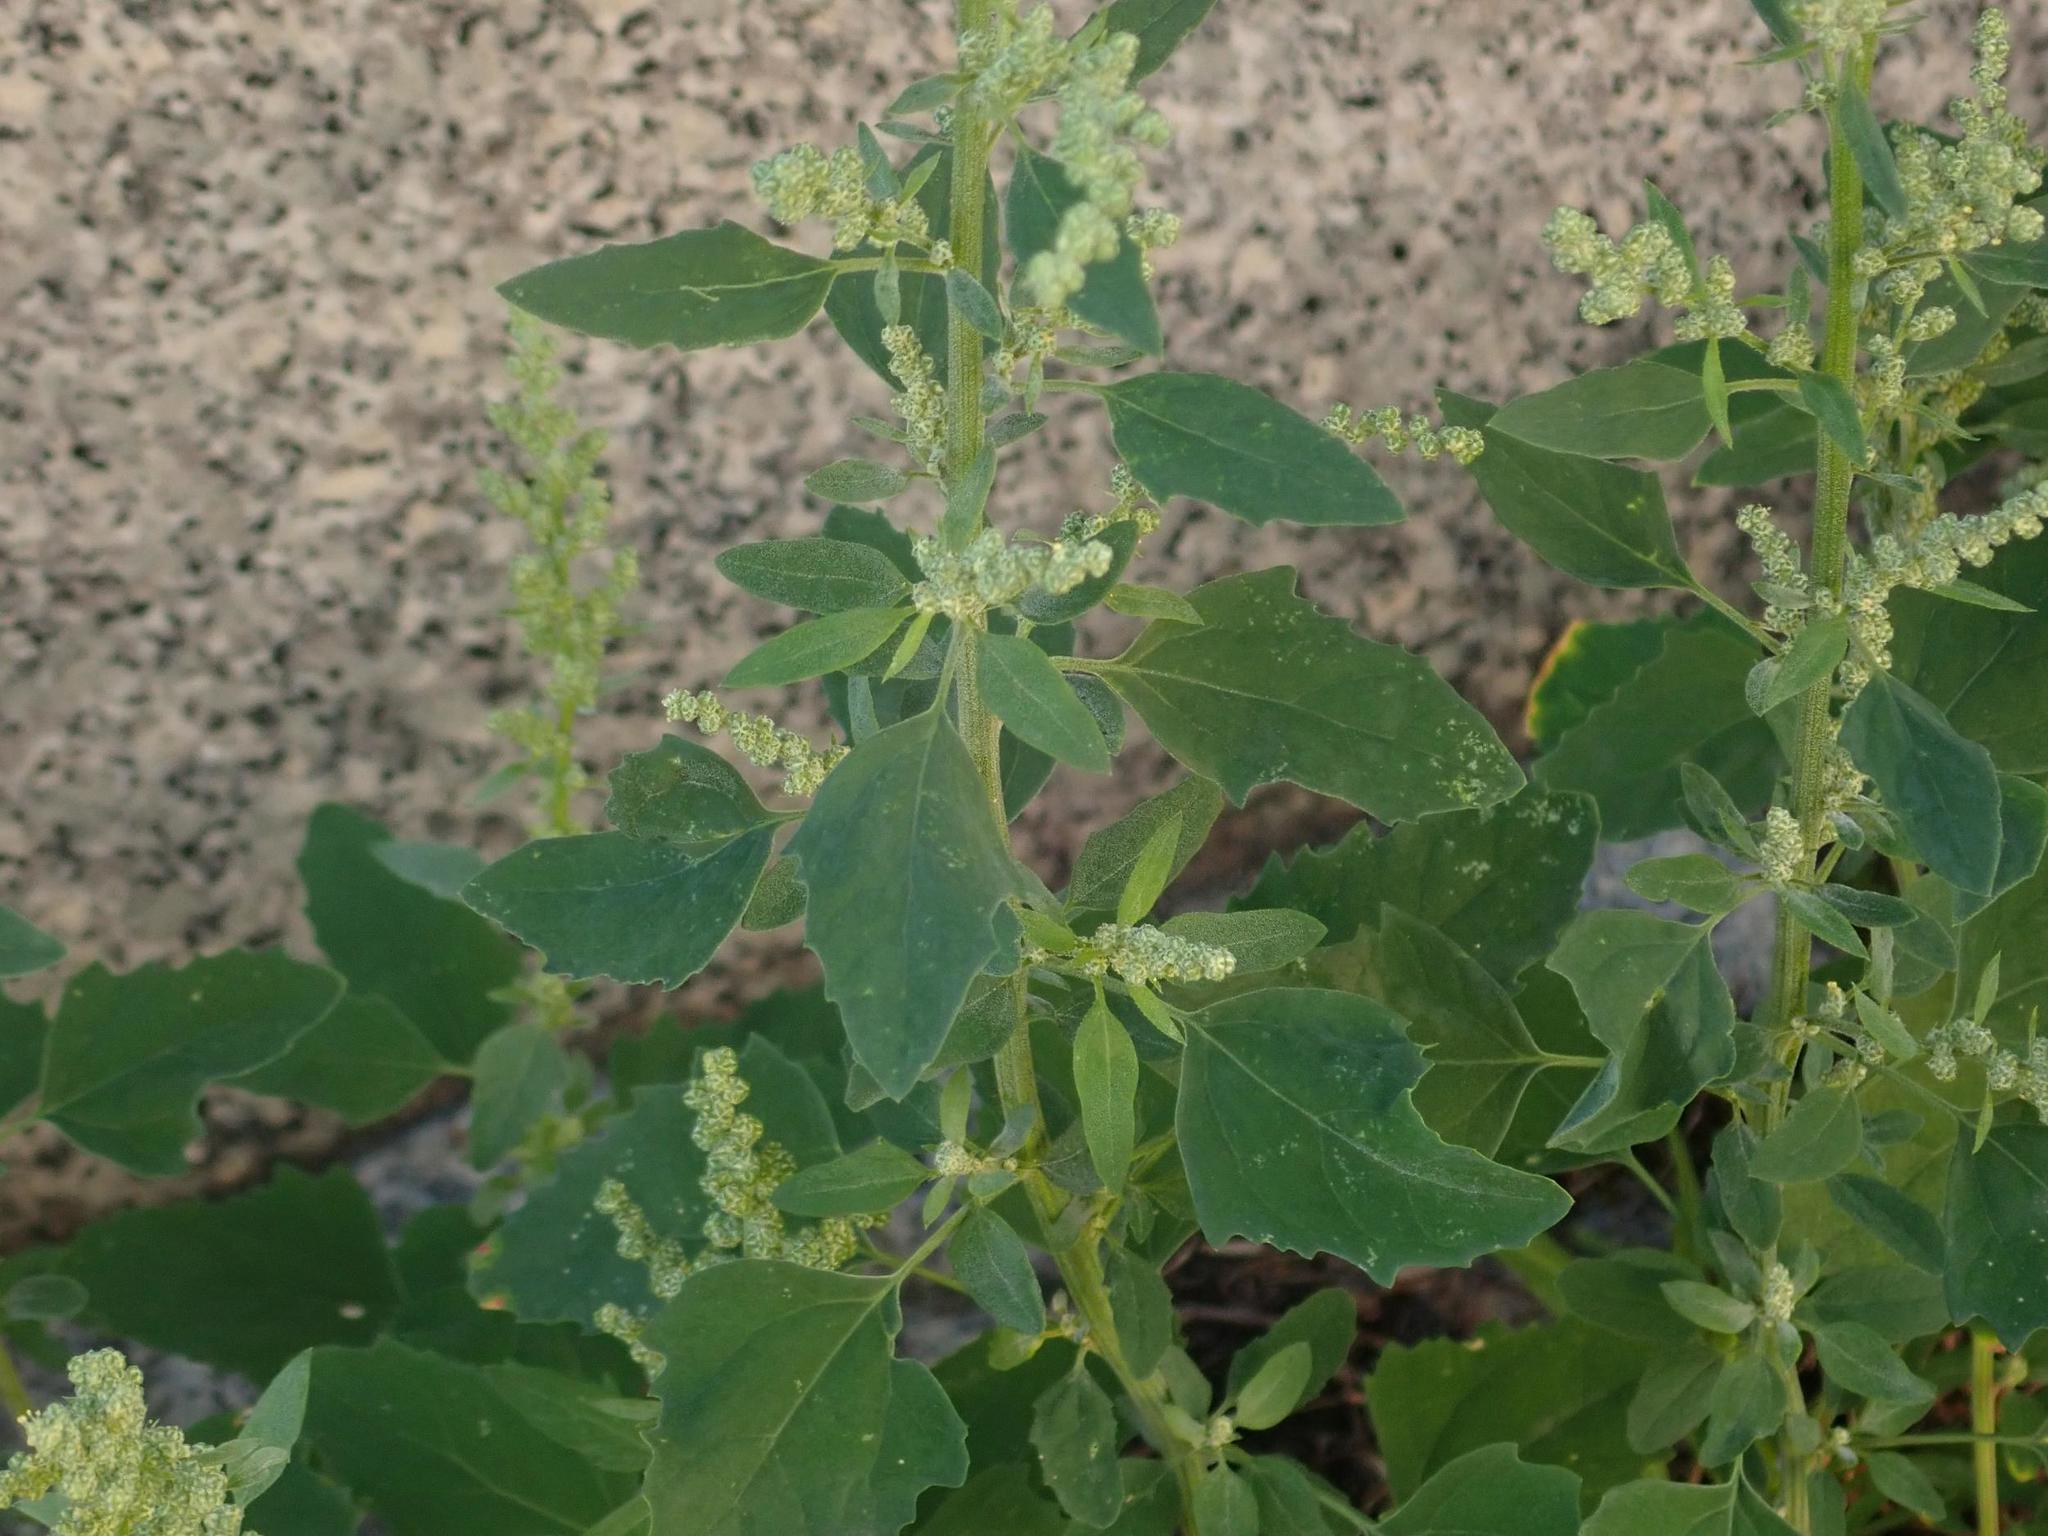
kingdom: Plantae
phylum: Tracheophyta
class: Magnoliopsida
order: Caryophyllales
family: Amaranthaceae
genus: Chenopodium
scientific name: Chenopodium album
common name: Fat-hen
